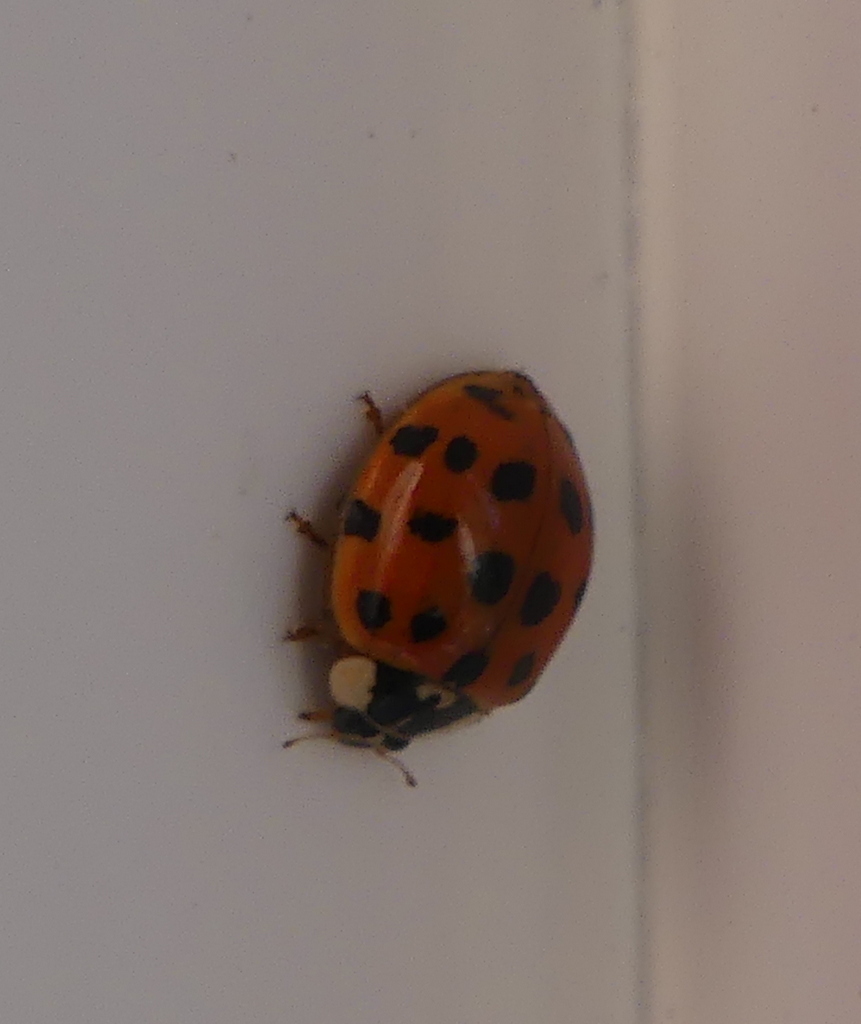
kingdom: Animalia
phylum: Arthropoda
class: Insecta
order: Coleoptera
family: Coccinellidae
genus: Harmonia
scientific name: Harmonia axyridis
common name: Harlequin ladybird
